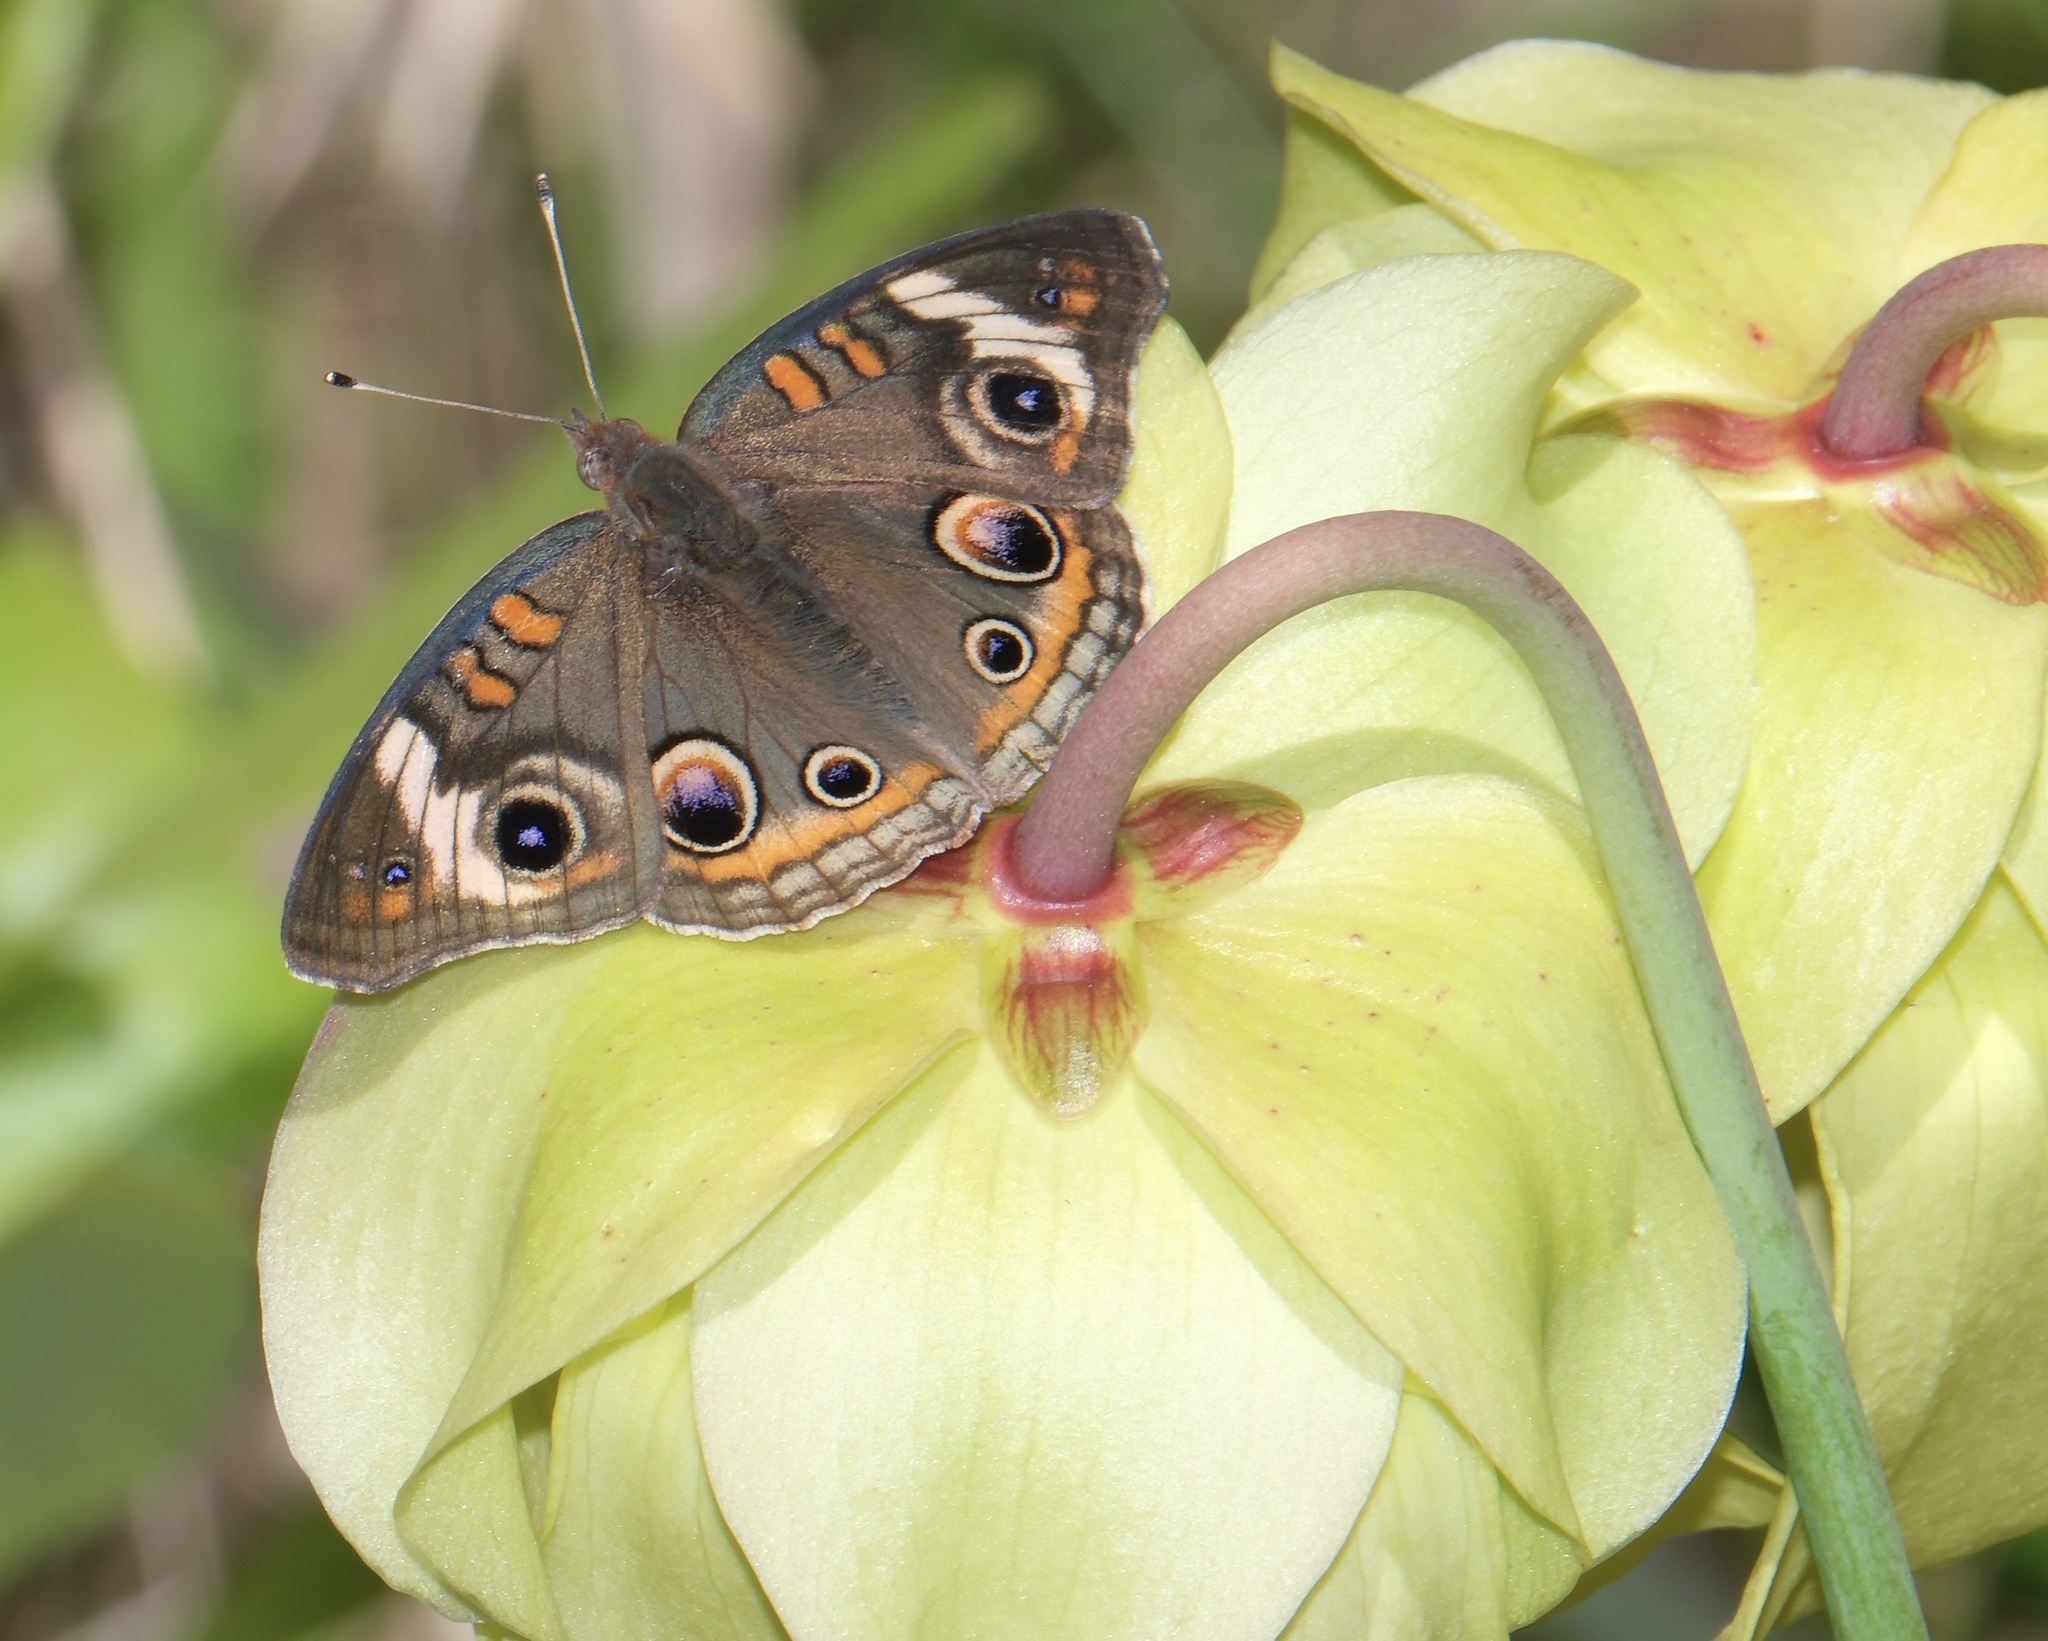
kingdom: Animalia
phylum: Arthropoda
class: Insecta
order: Lepidoptera
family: Nymphalidae
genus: Junonia
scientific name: Junonia coenia
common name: Common buckeye
